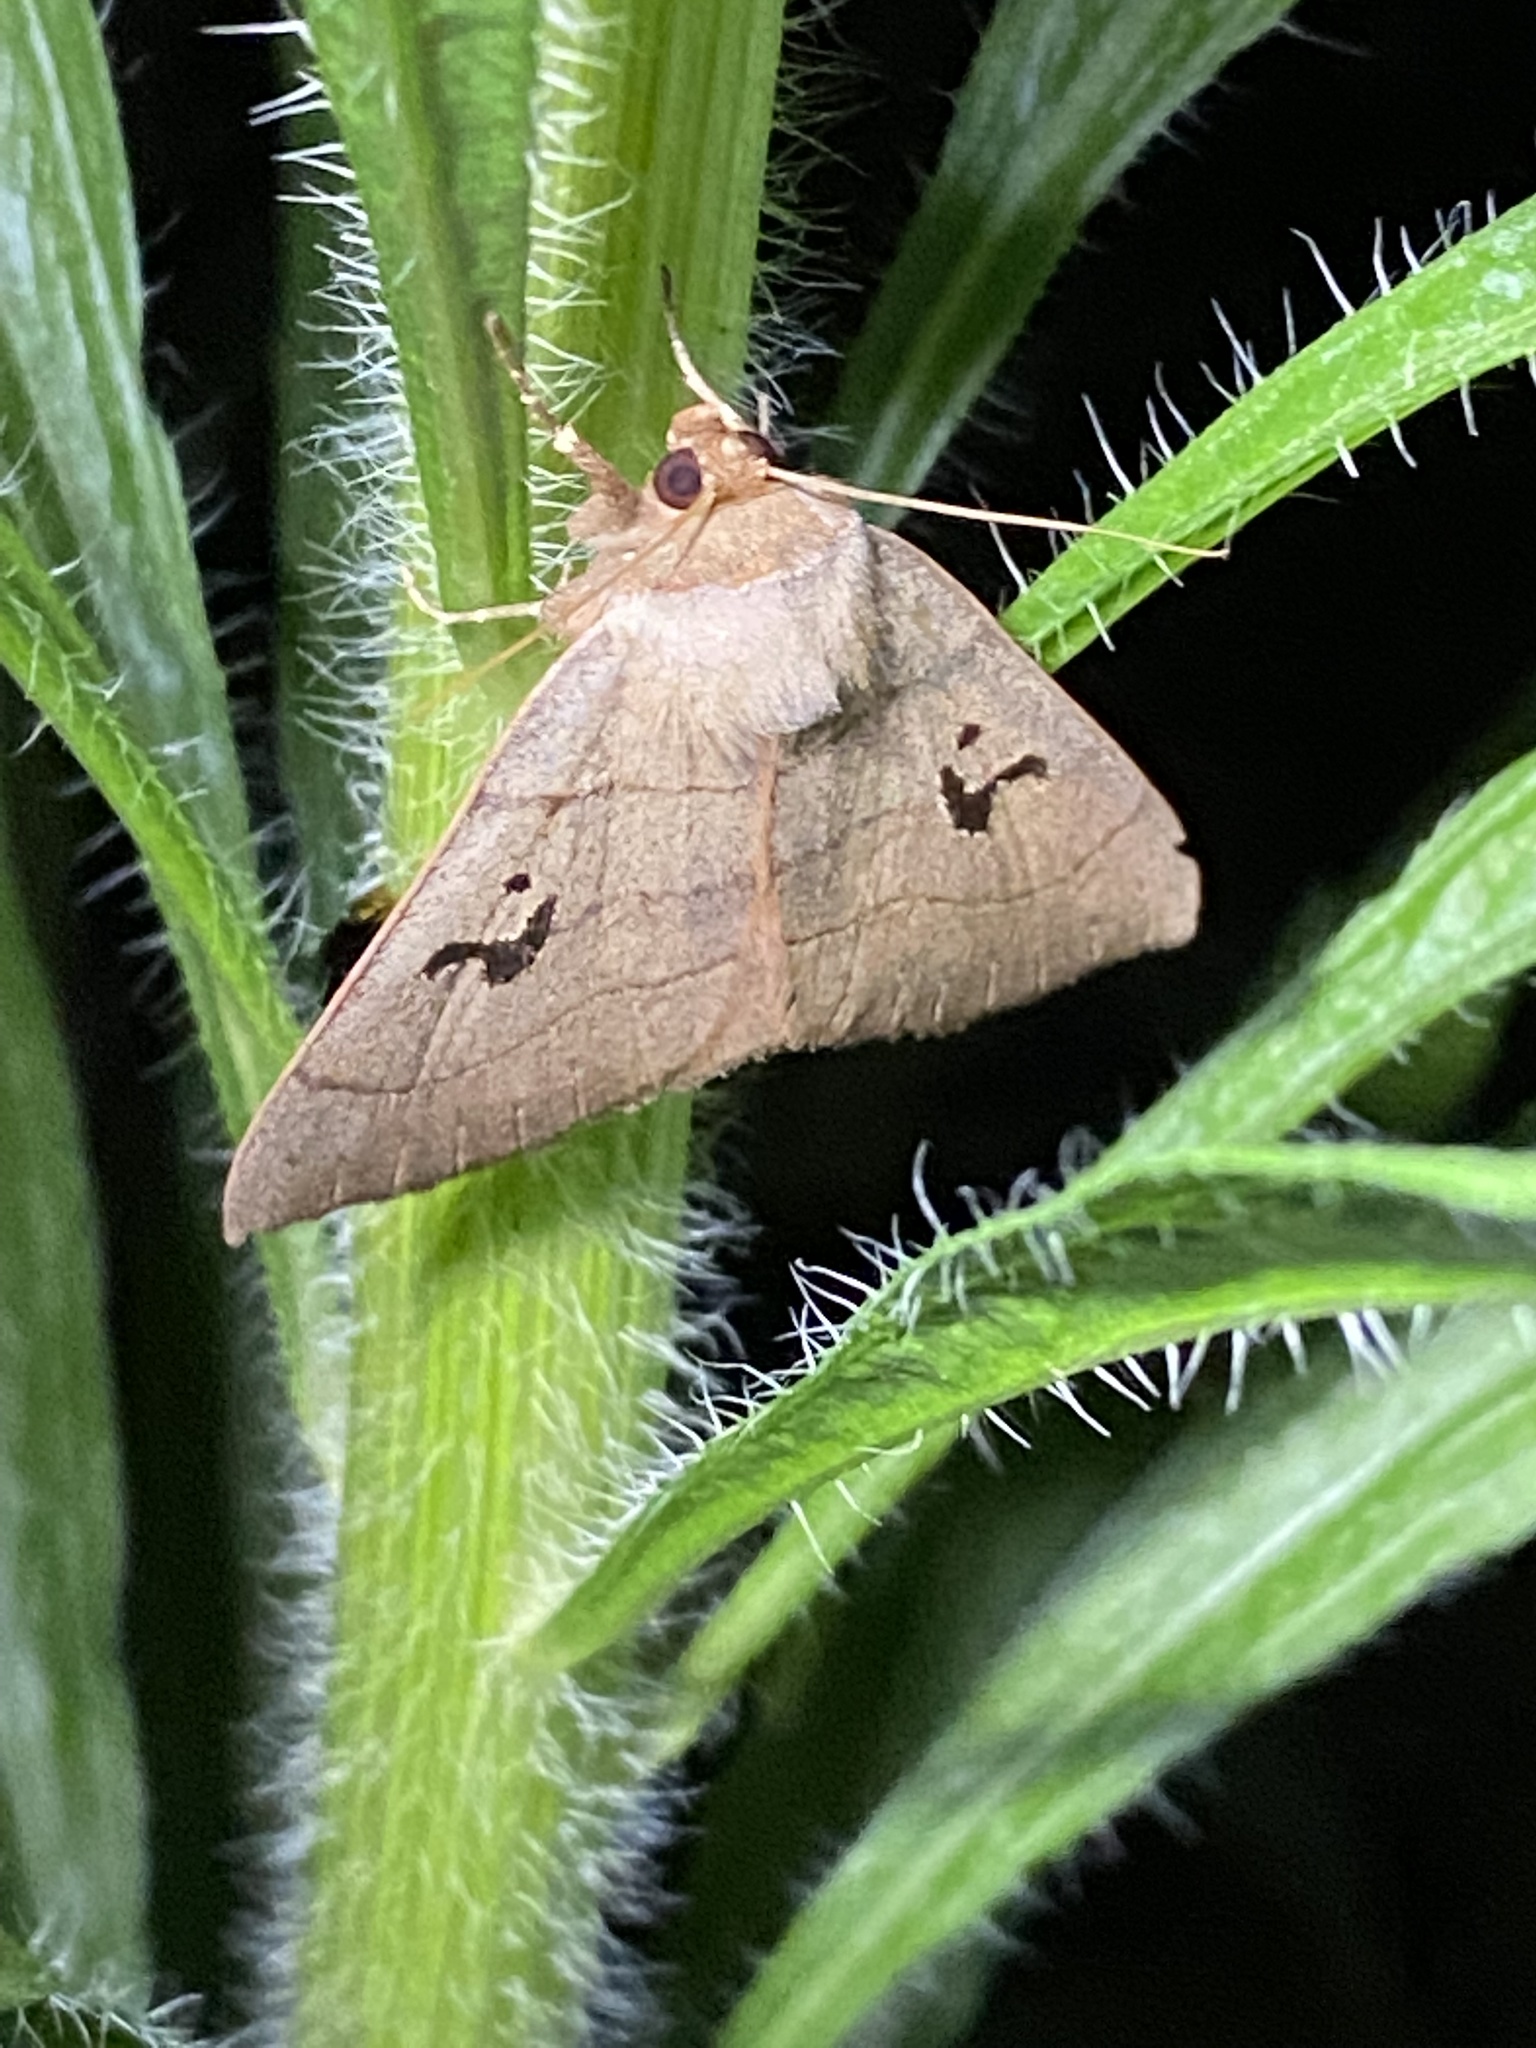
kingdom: Animalia
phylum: Arthropoda
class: Insecta
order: Lepidoptera
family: Erebidae
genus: Panopoda
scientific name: Panopoda carneicosta
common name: Brown panopoda moth
